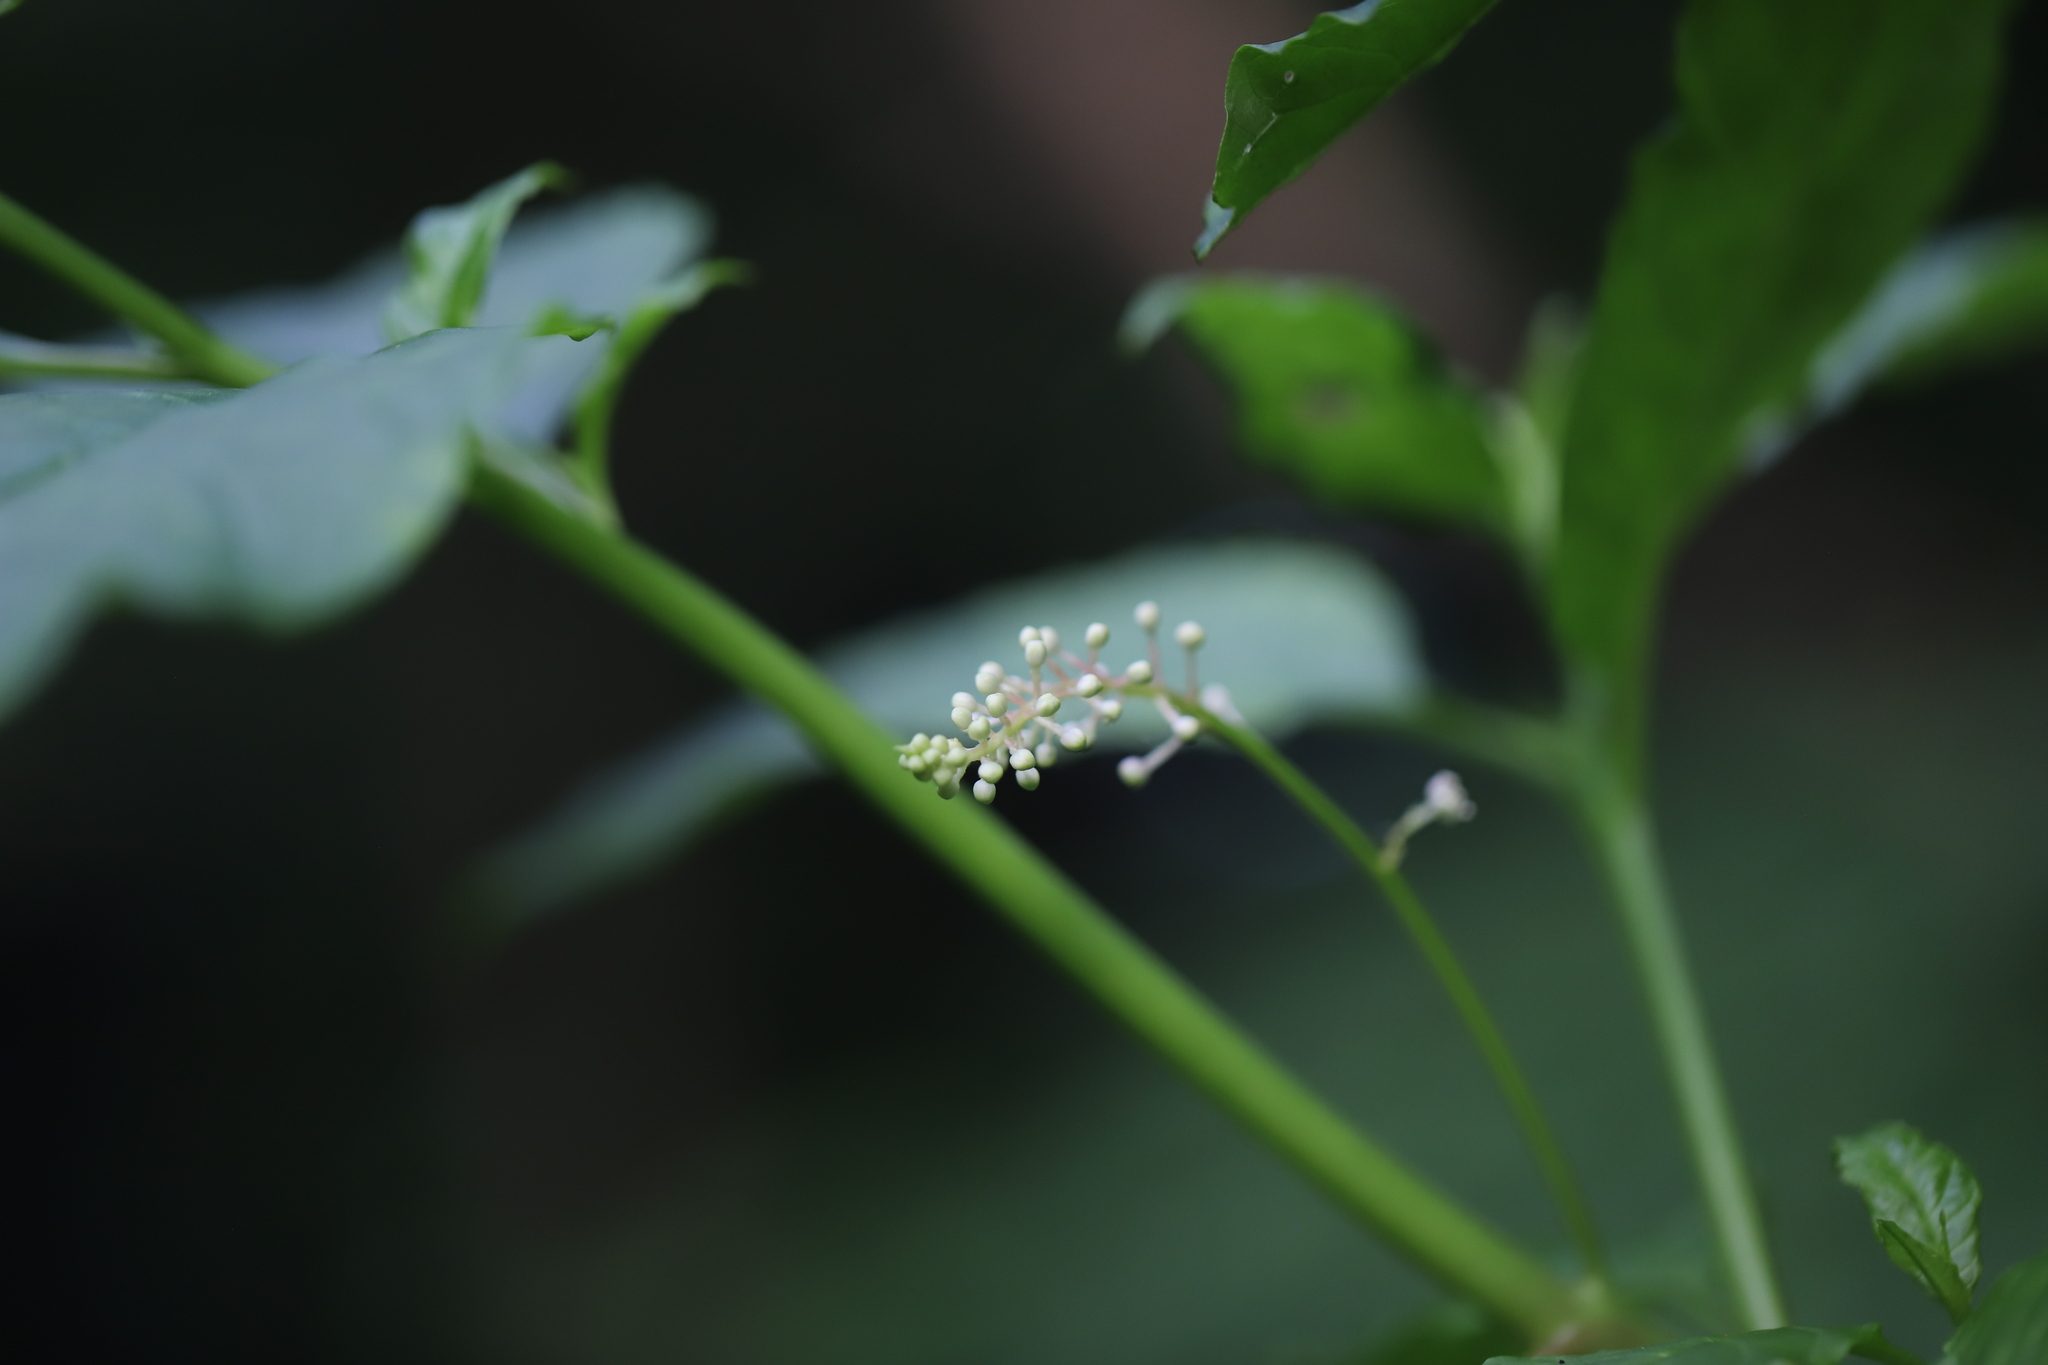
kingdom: Plantae
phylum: Tracheophyta
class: Magnoliopsida
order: Caryophyllales
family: Phytolaccaceae
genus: Phytolacca
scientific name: Phytolacca americana
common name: American pokeweed
